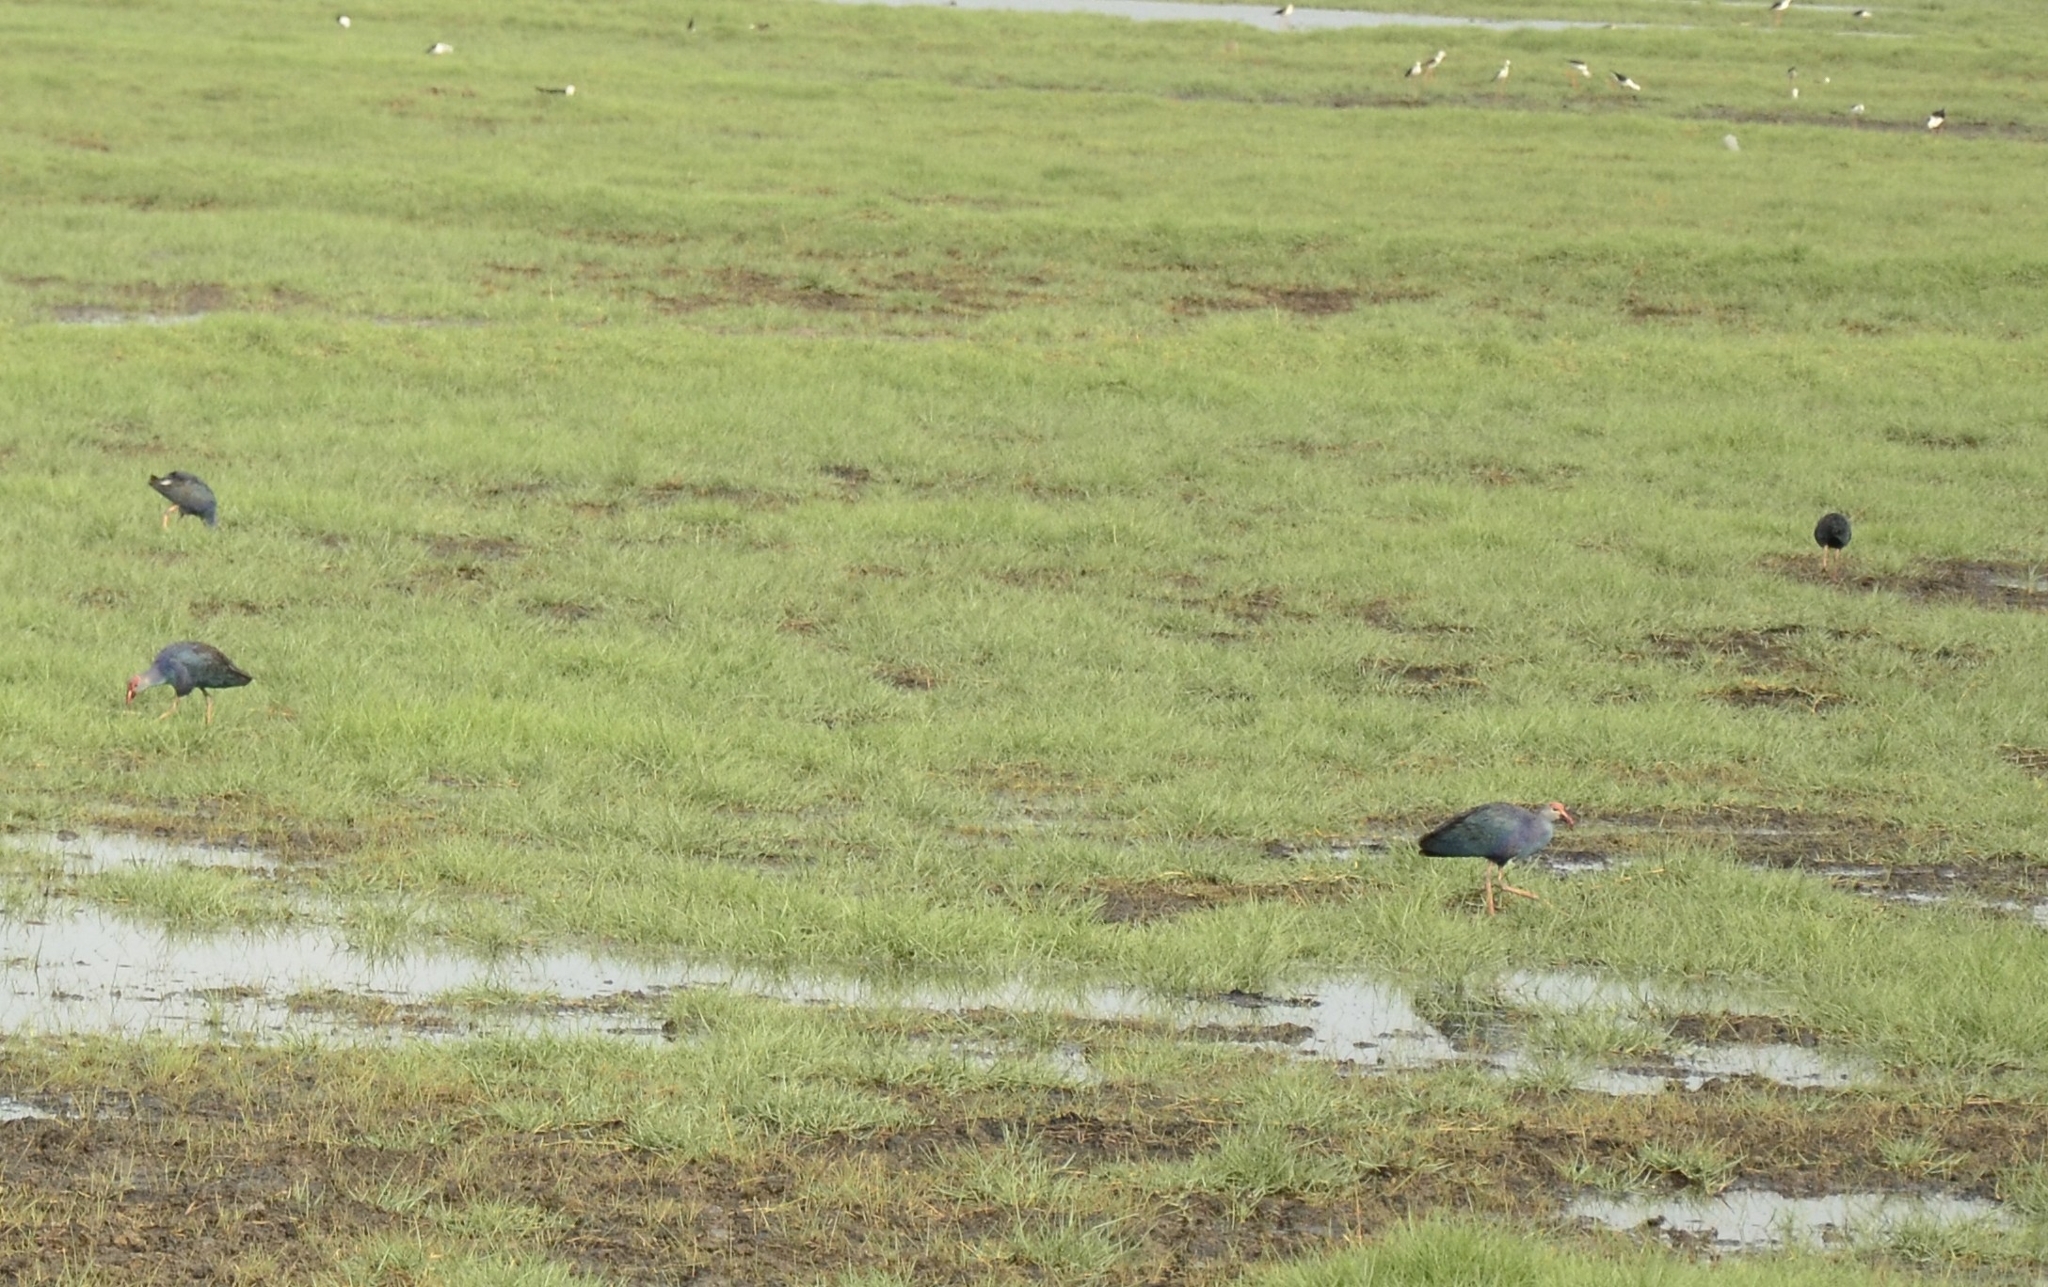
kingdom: Animalia
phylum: Chordata
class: Aves
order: Gruiformes
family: Rallidae
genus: Porphyrio
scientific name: Porphyrio porphyrio
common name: Purple swamphen
